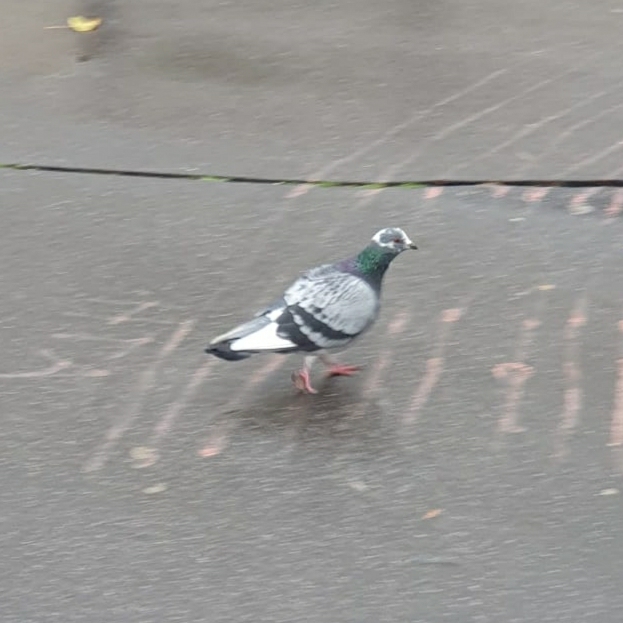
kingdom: Animalia
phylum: Chordata
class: Aves
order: Columbiformes
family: Columbidae
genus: Columba
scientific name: Columba livia
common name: Rock pigeon
